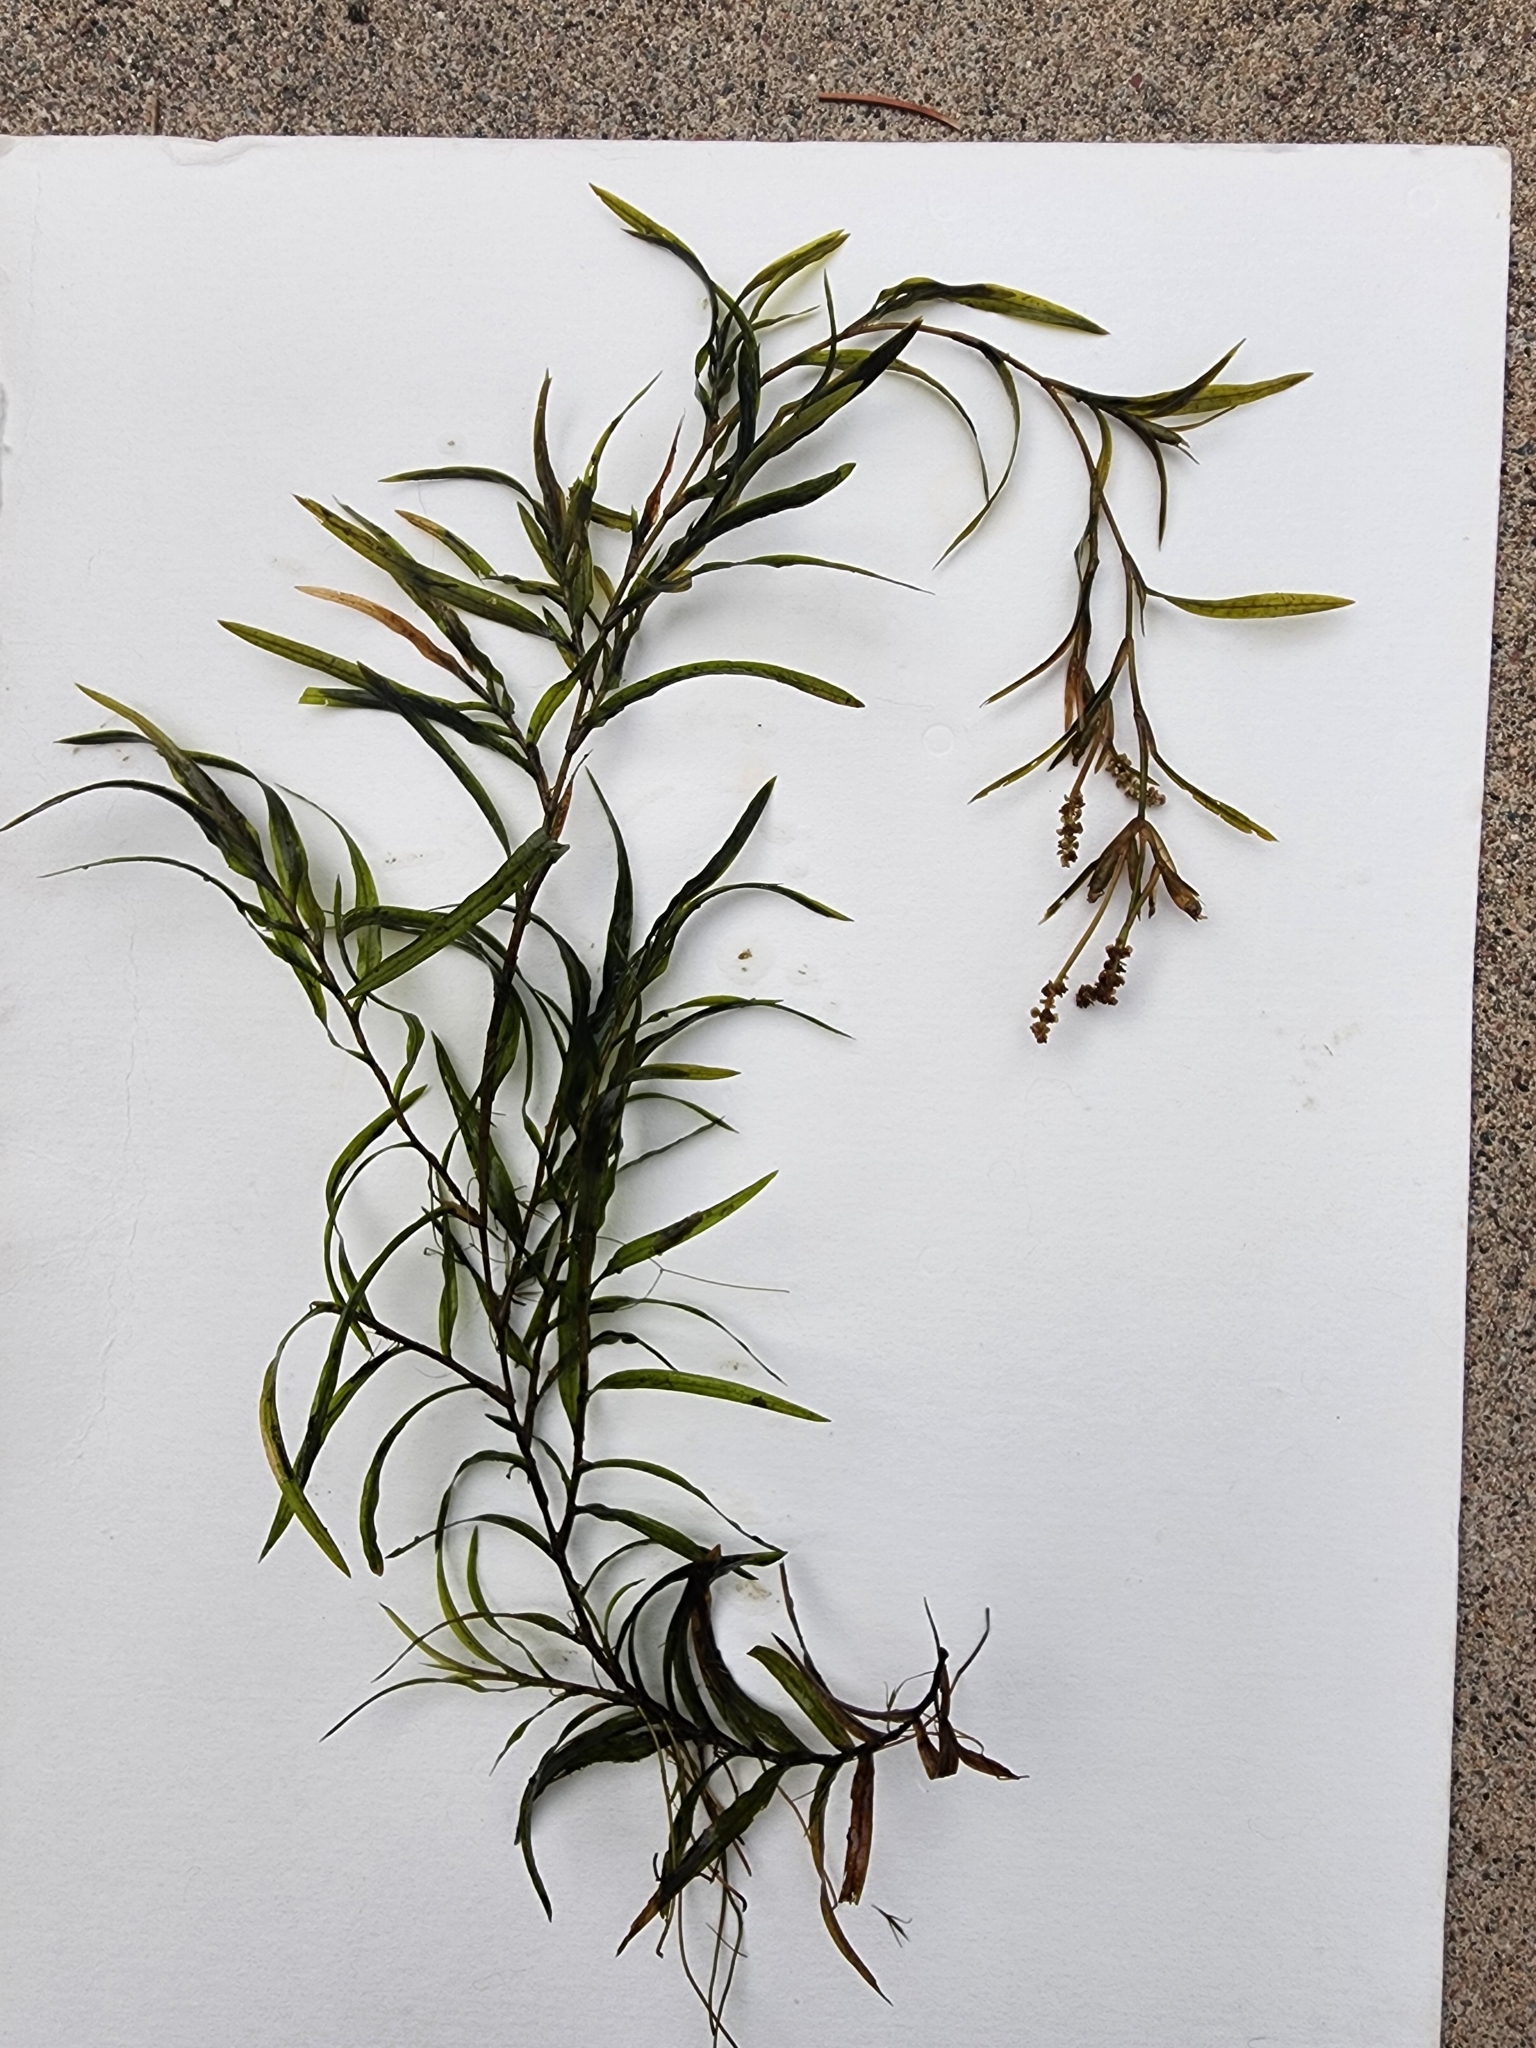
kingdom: Plantae
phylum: Tracheophyta
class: Liliopsida
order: Alismatales
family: Potamogetonaceae
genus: Potamogeton
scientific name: Potamogeton robbinsii
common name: Fern pondweed
